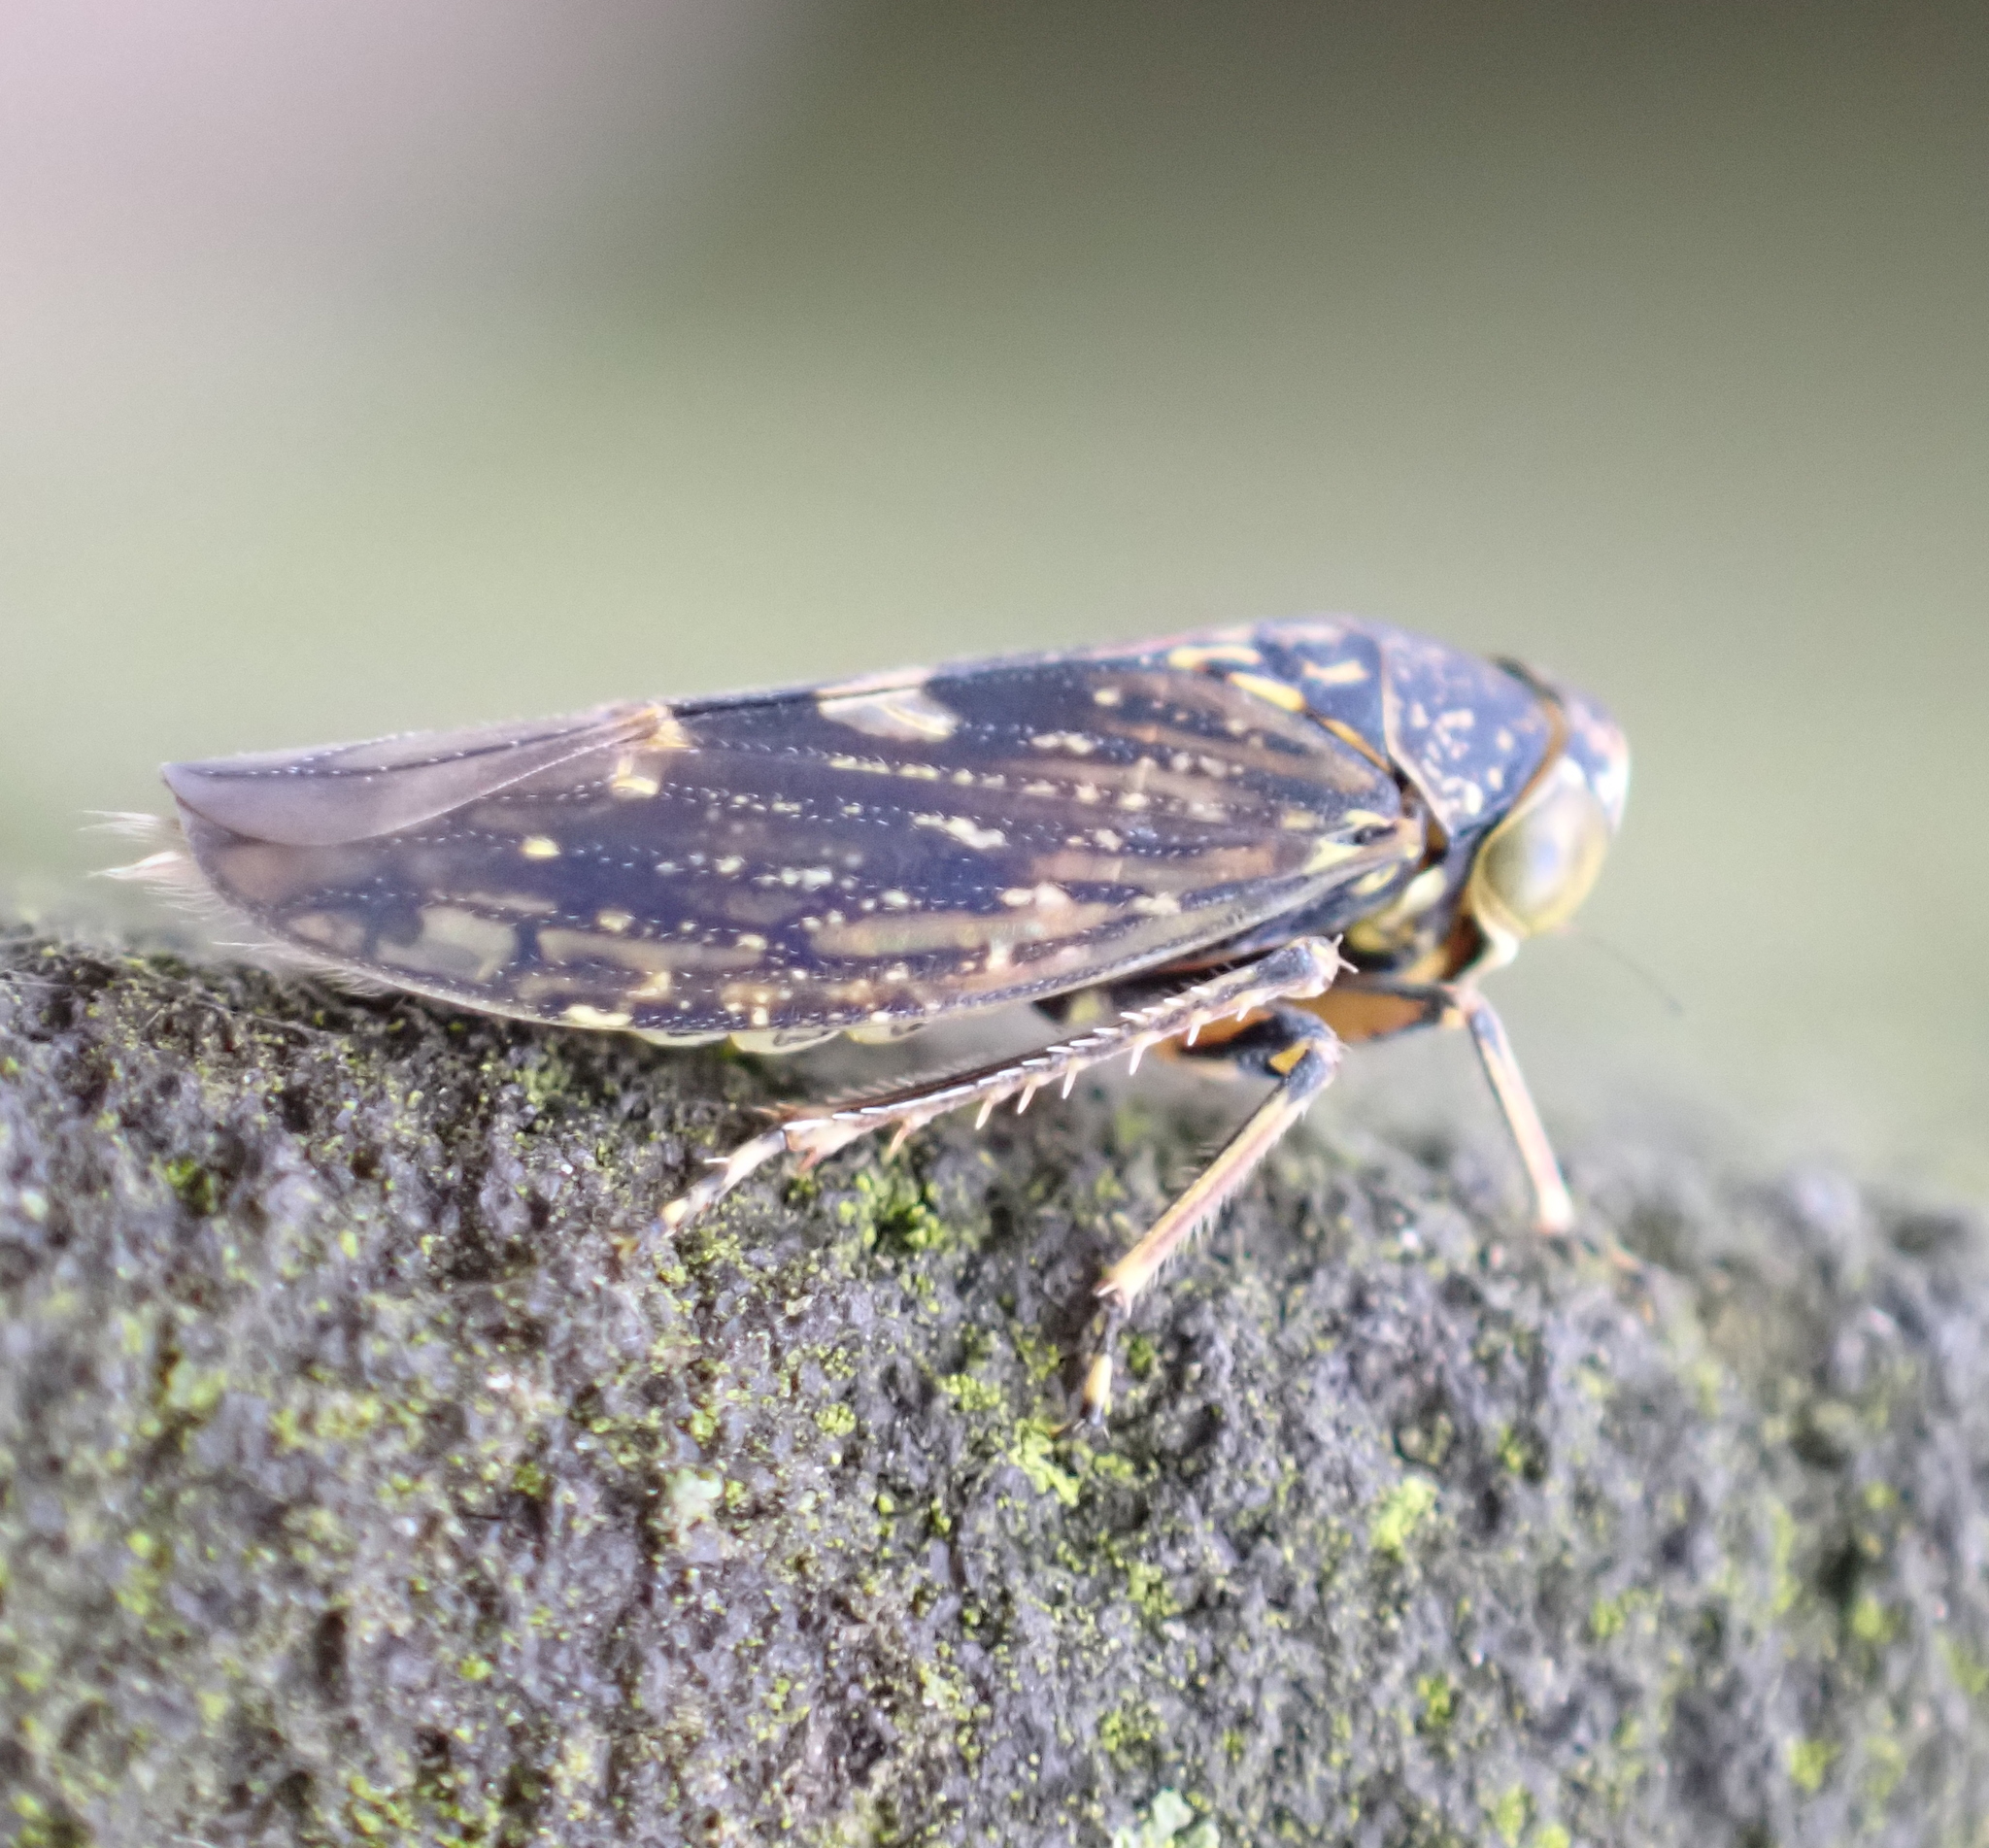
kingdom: Animalia
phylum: Arthropoda
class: Insecta
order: Hemiptera
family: Cicadellidae
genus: Acericerus
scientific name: Acericerus heydenii
